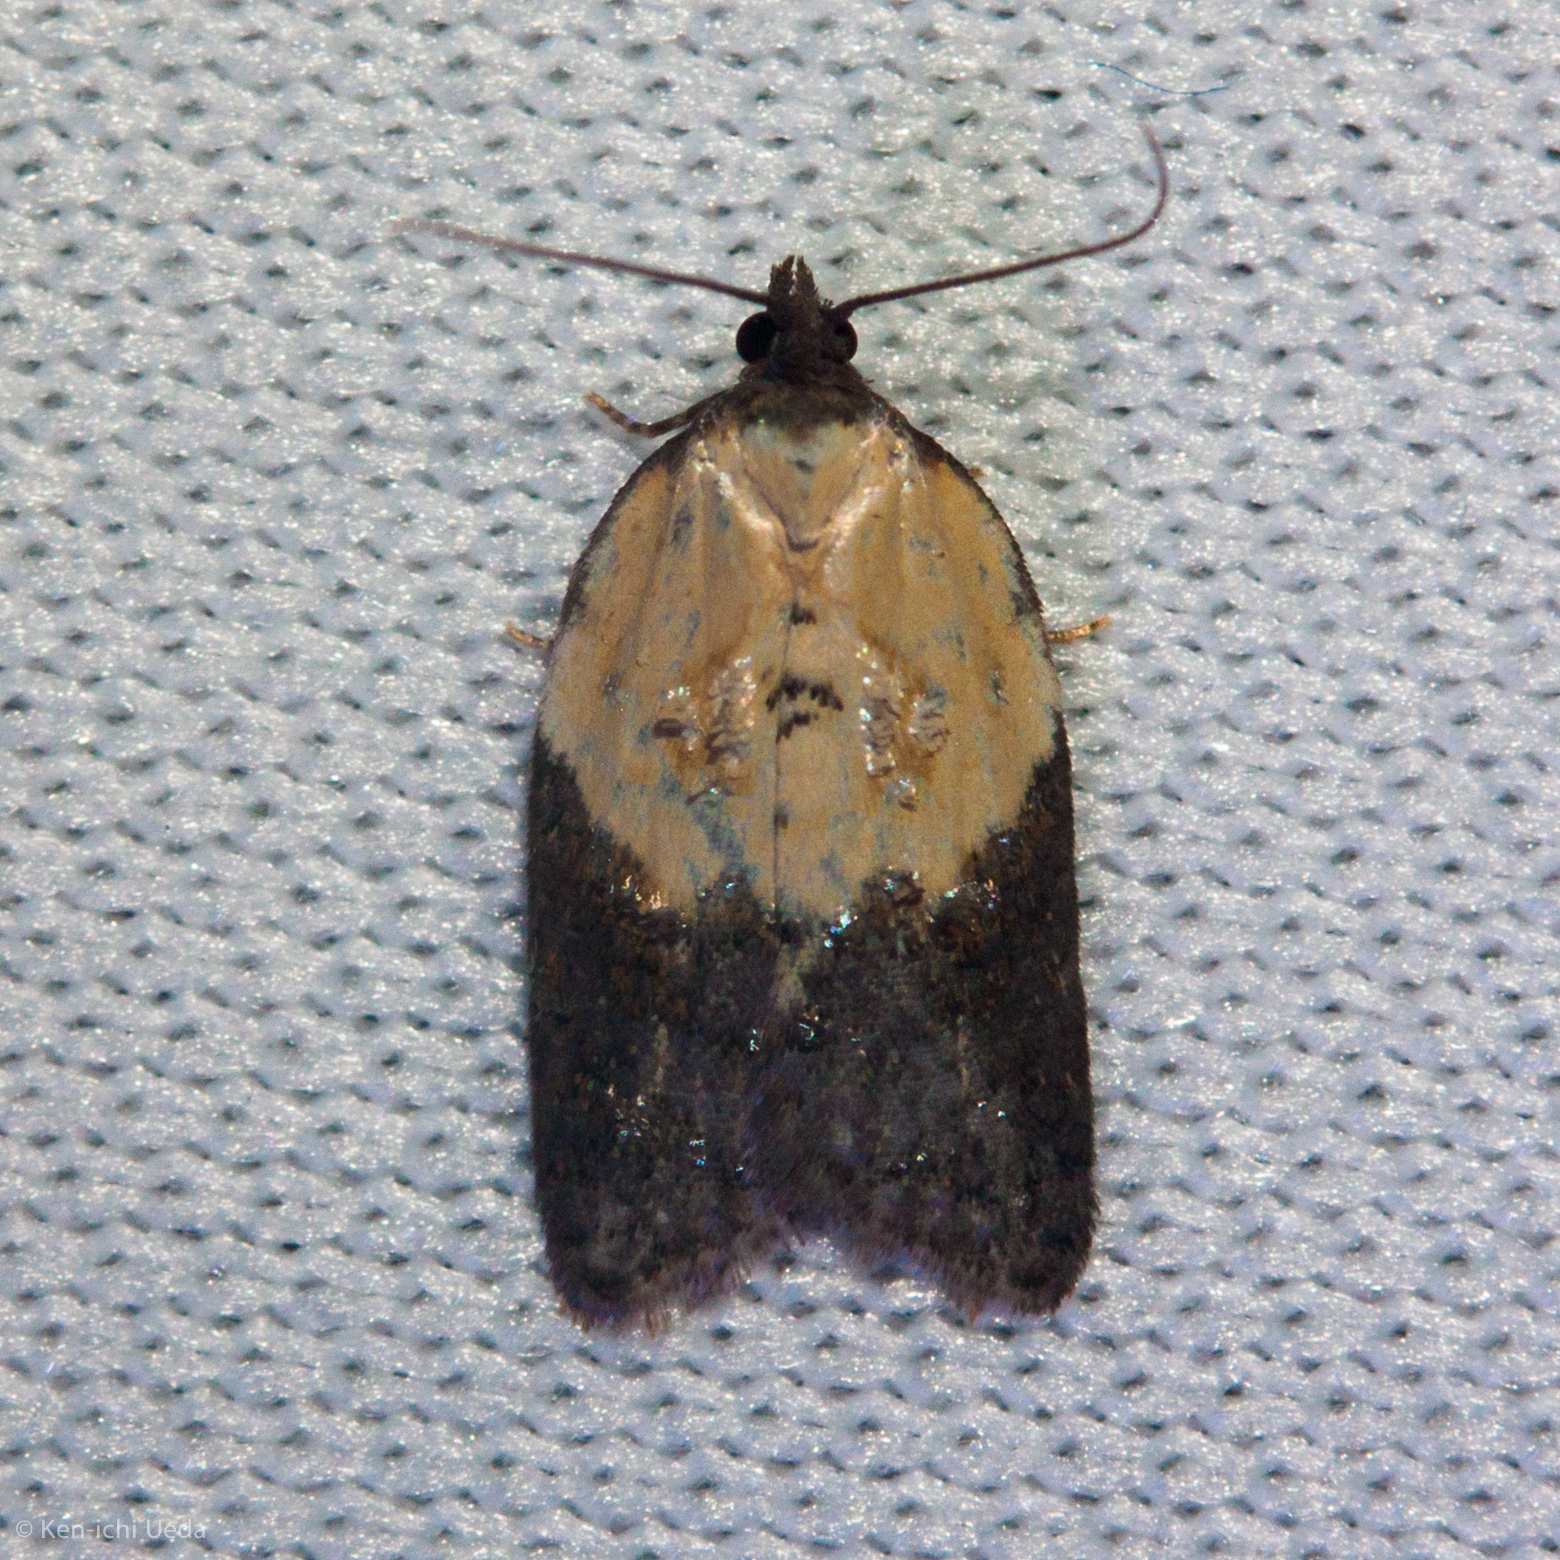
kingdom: Animalia
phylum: Arthropoda
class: Insecta
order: Lepidoptera
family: Tortricidae
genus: Acleris
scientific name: Acleris variegana
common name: Garden rose tortrix
